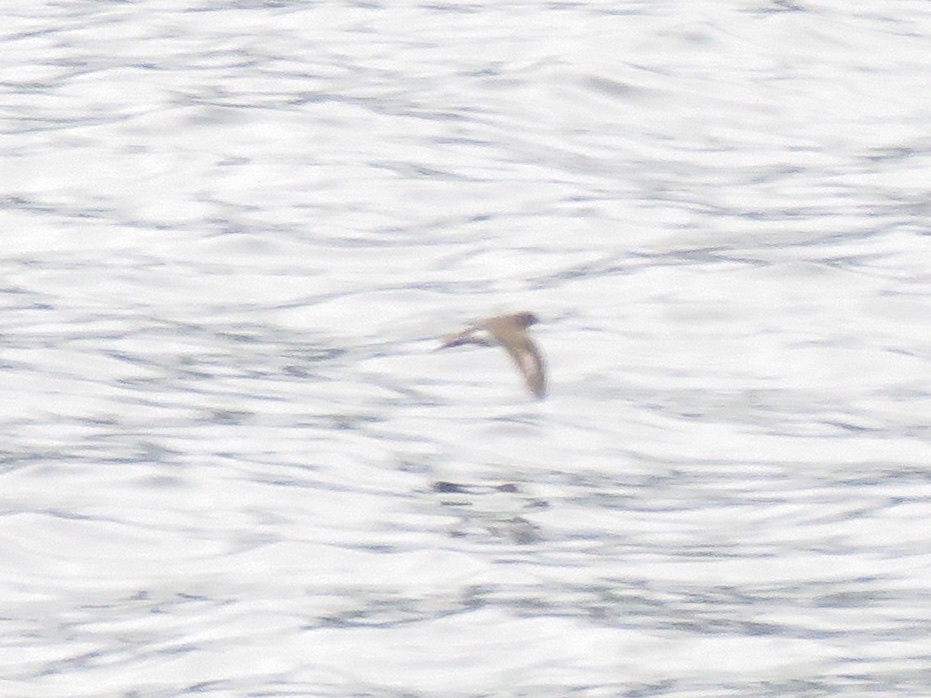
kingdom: Animalia
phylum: Chordata
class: Aves
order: Charadriiformes
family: Scolopacidae
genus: Actitis
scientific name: Actitis macularius
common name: Spotted sandpiper
